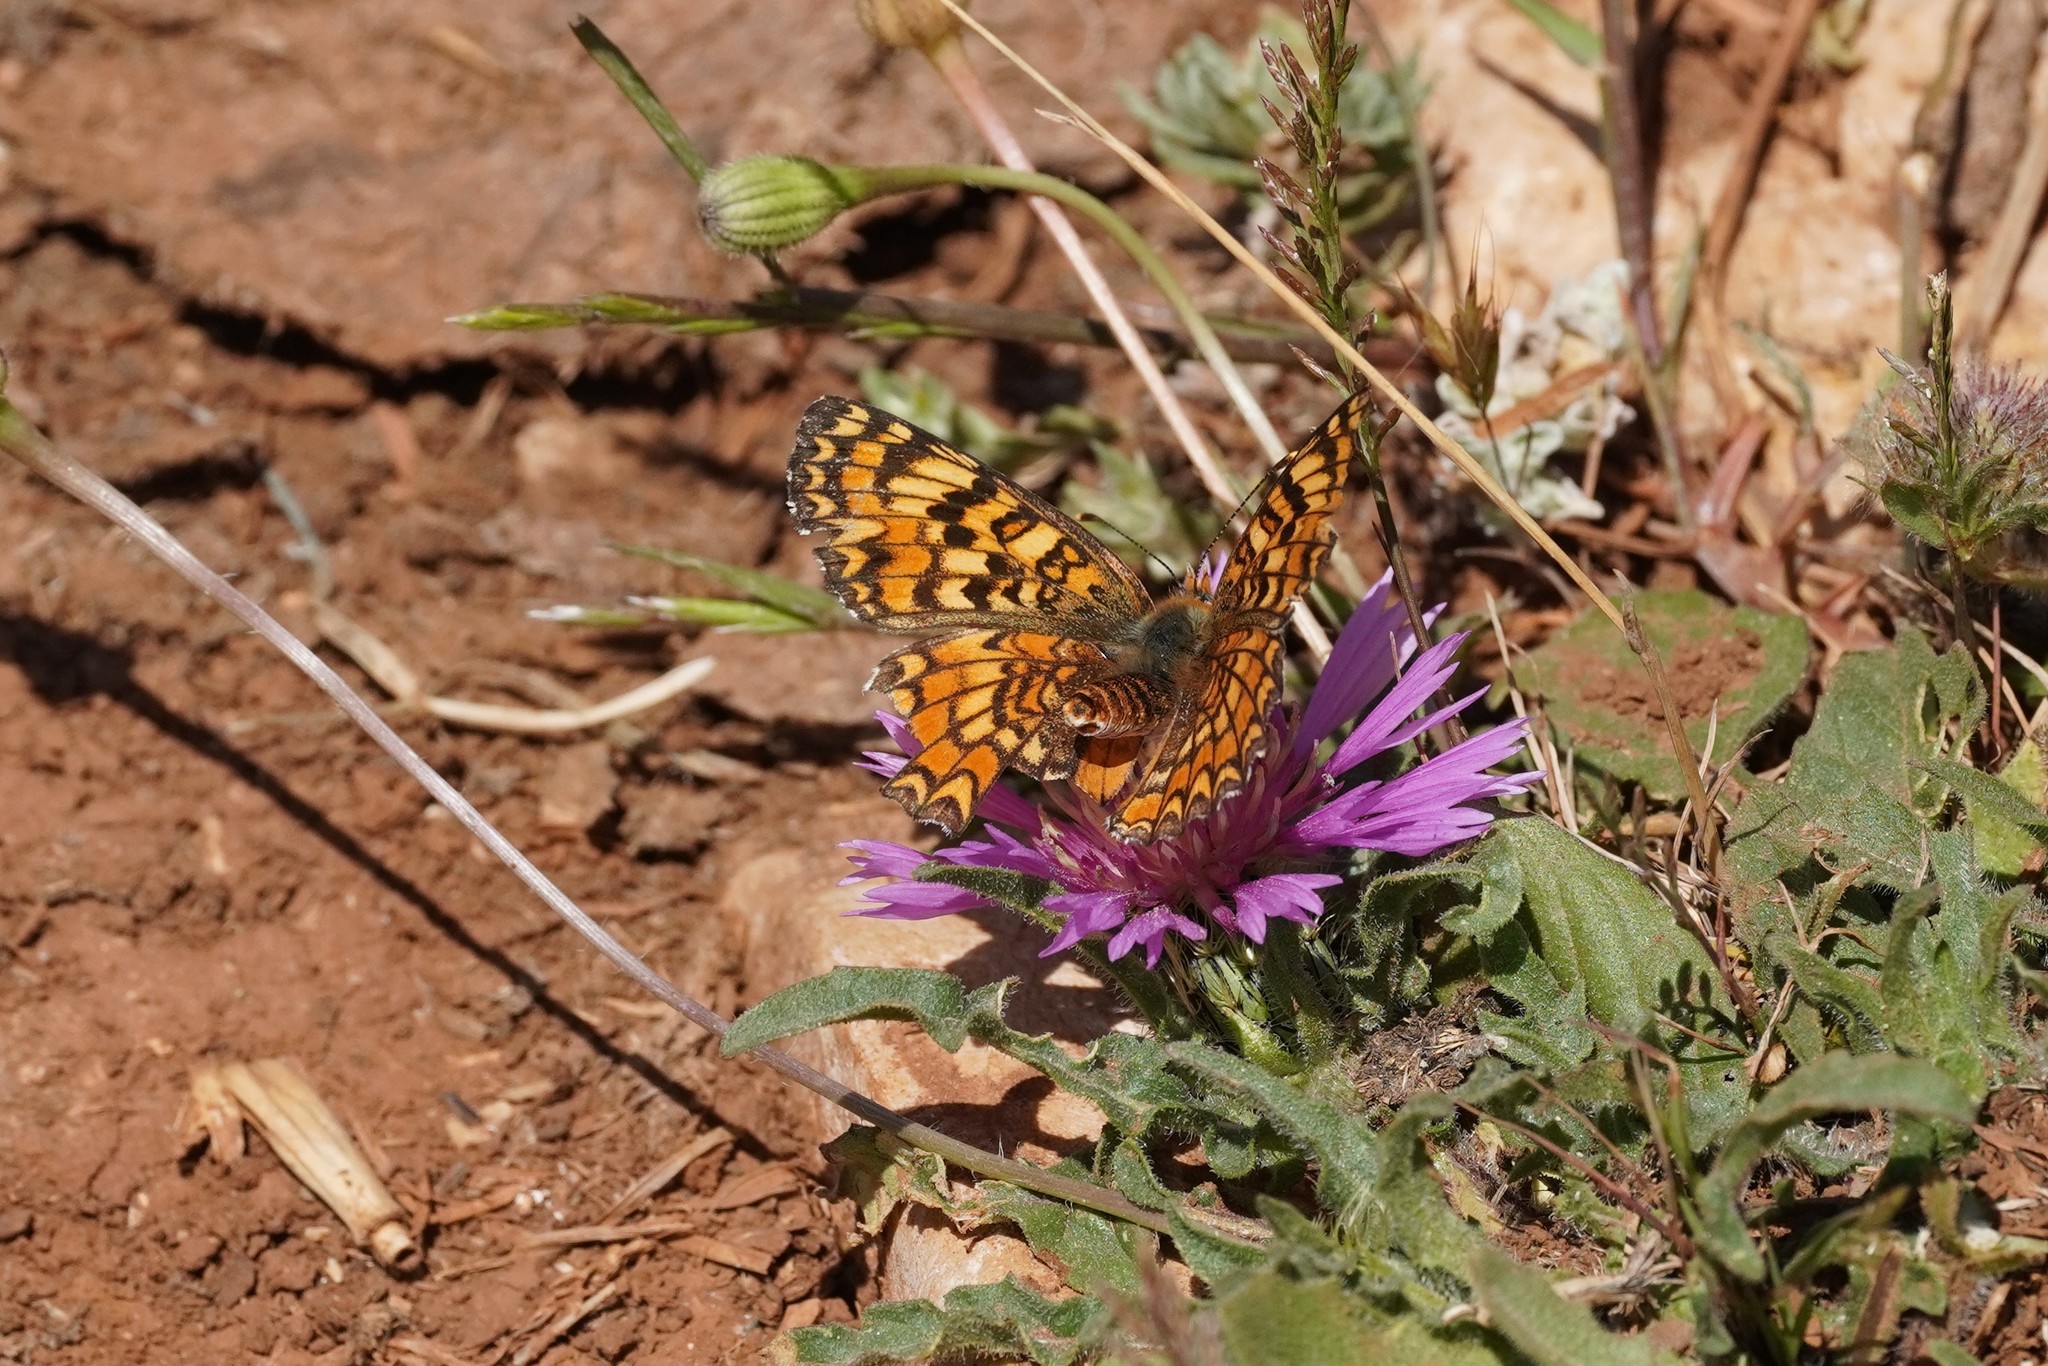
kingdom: Animalia
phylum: Arthropoda
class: Insecta
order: Lepidoptera
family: Nymphalidae
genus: Melitaea
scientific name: Melitaea phoebe
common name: Knapweed fritillary
